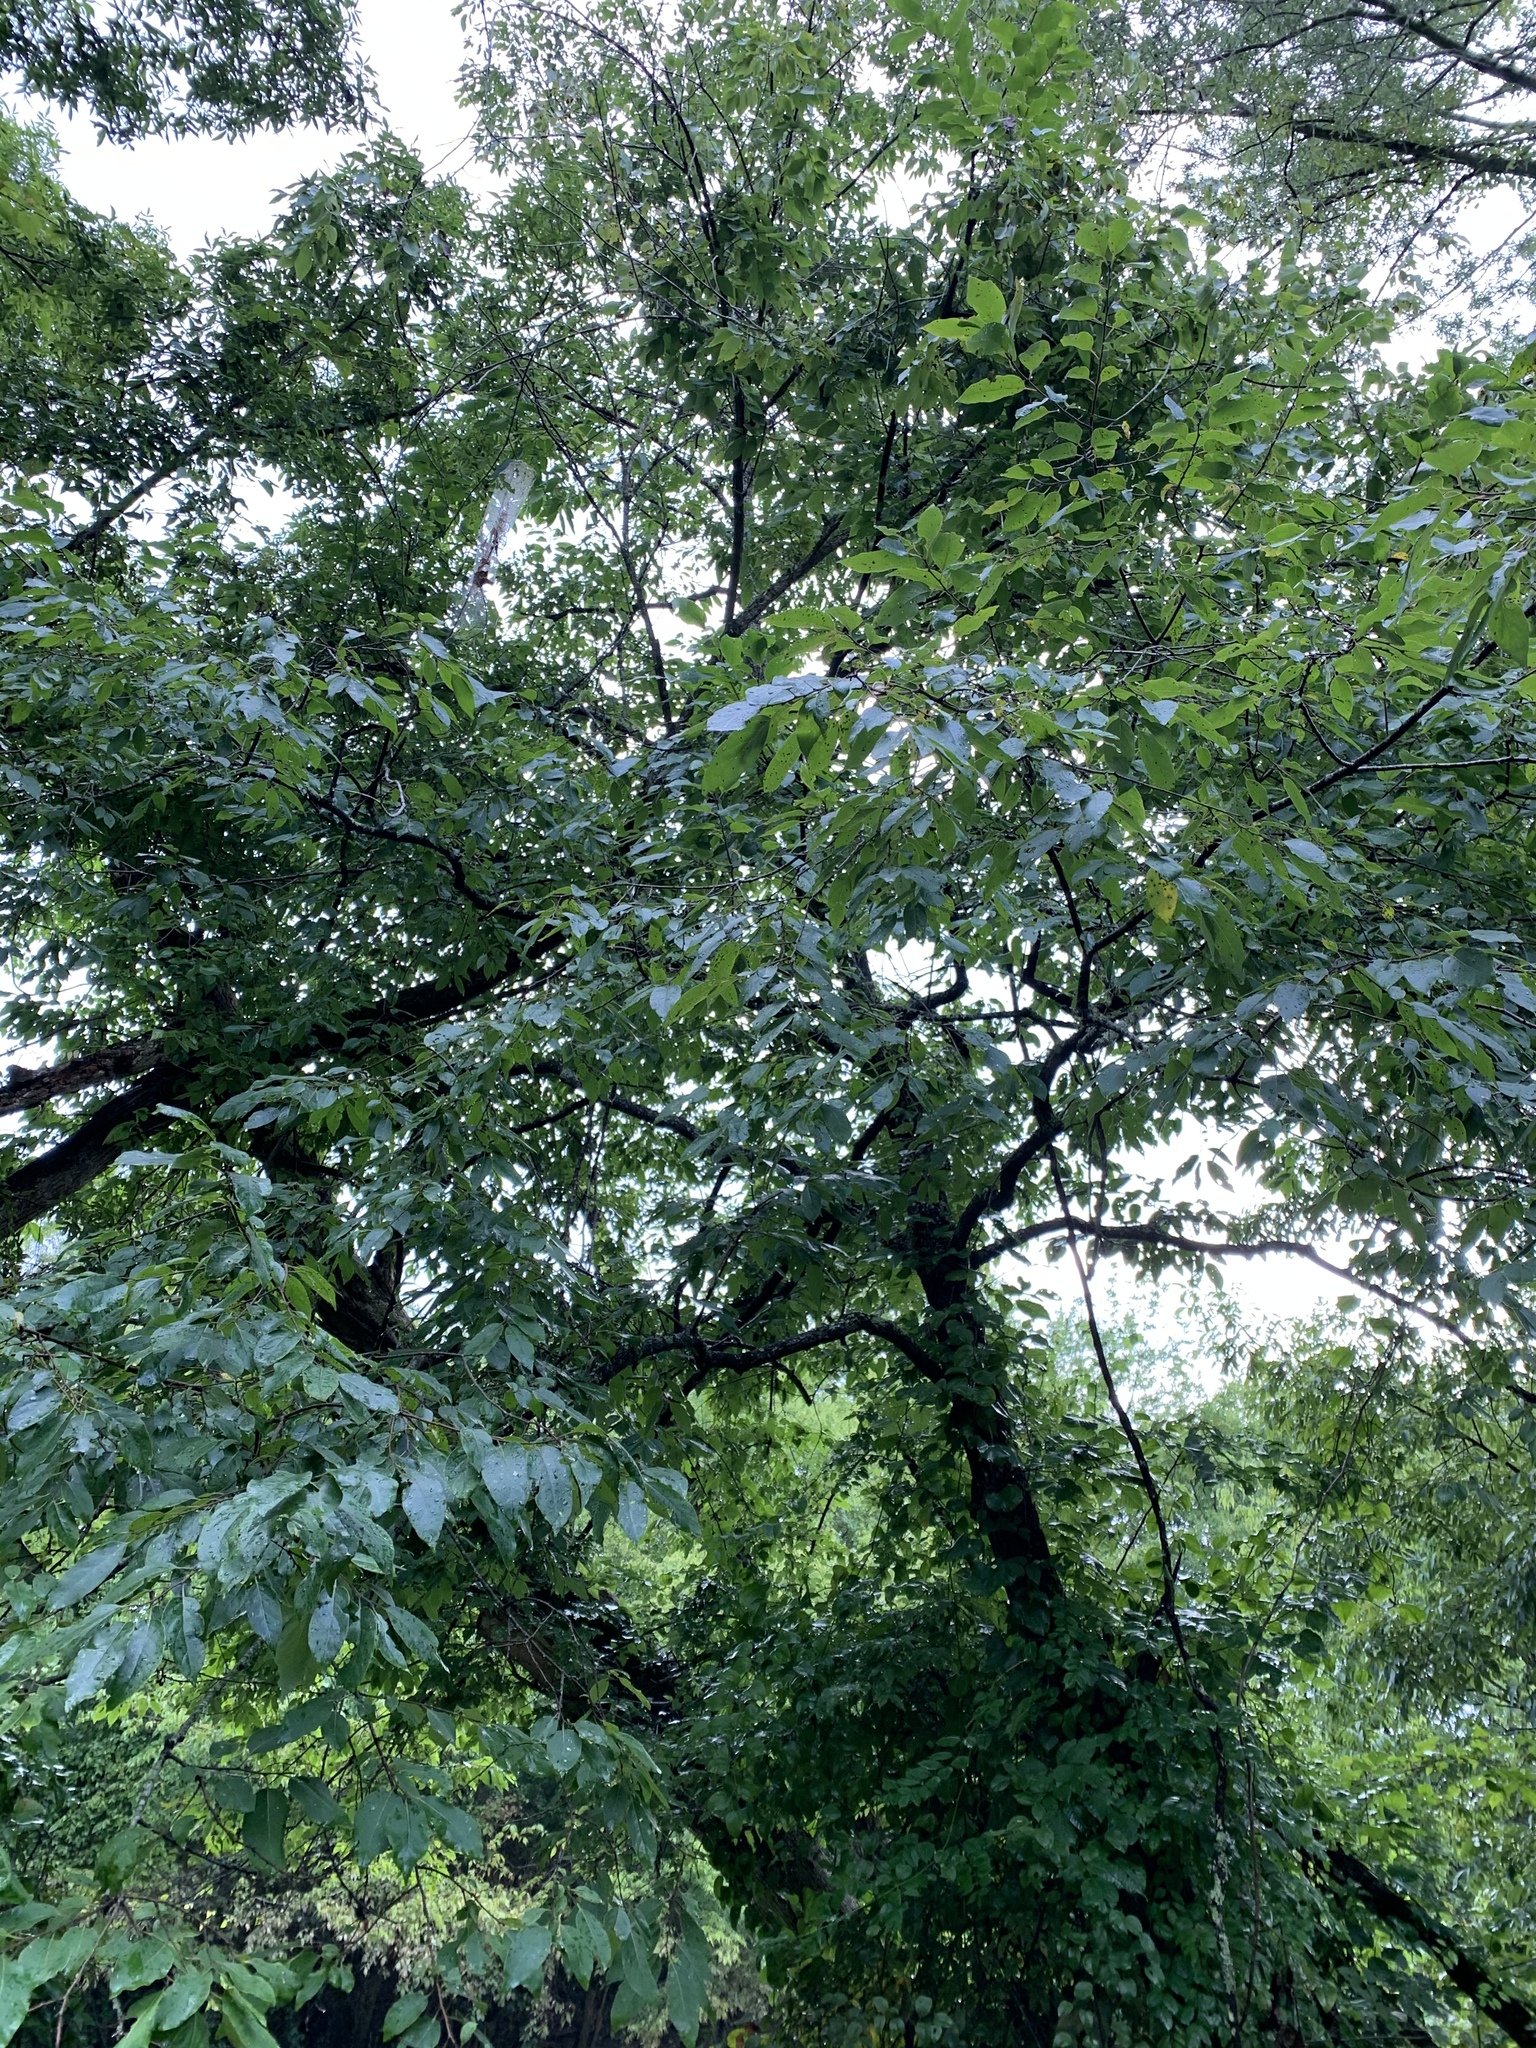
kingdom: Plantae
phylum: Tracheophyta
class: Magnoliopsida
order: Ericales
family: Ebenaceae
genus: Diospyros
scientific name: Diospyros virginiana
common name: Persimmon
